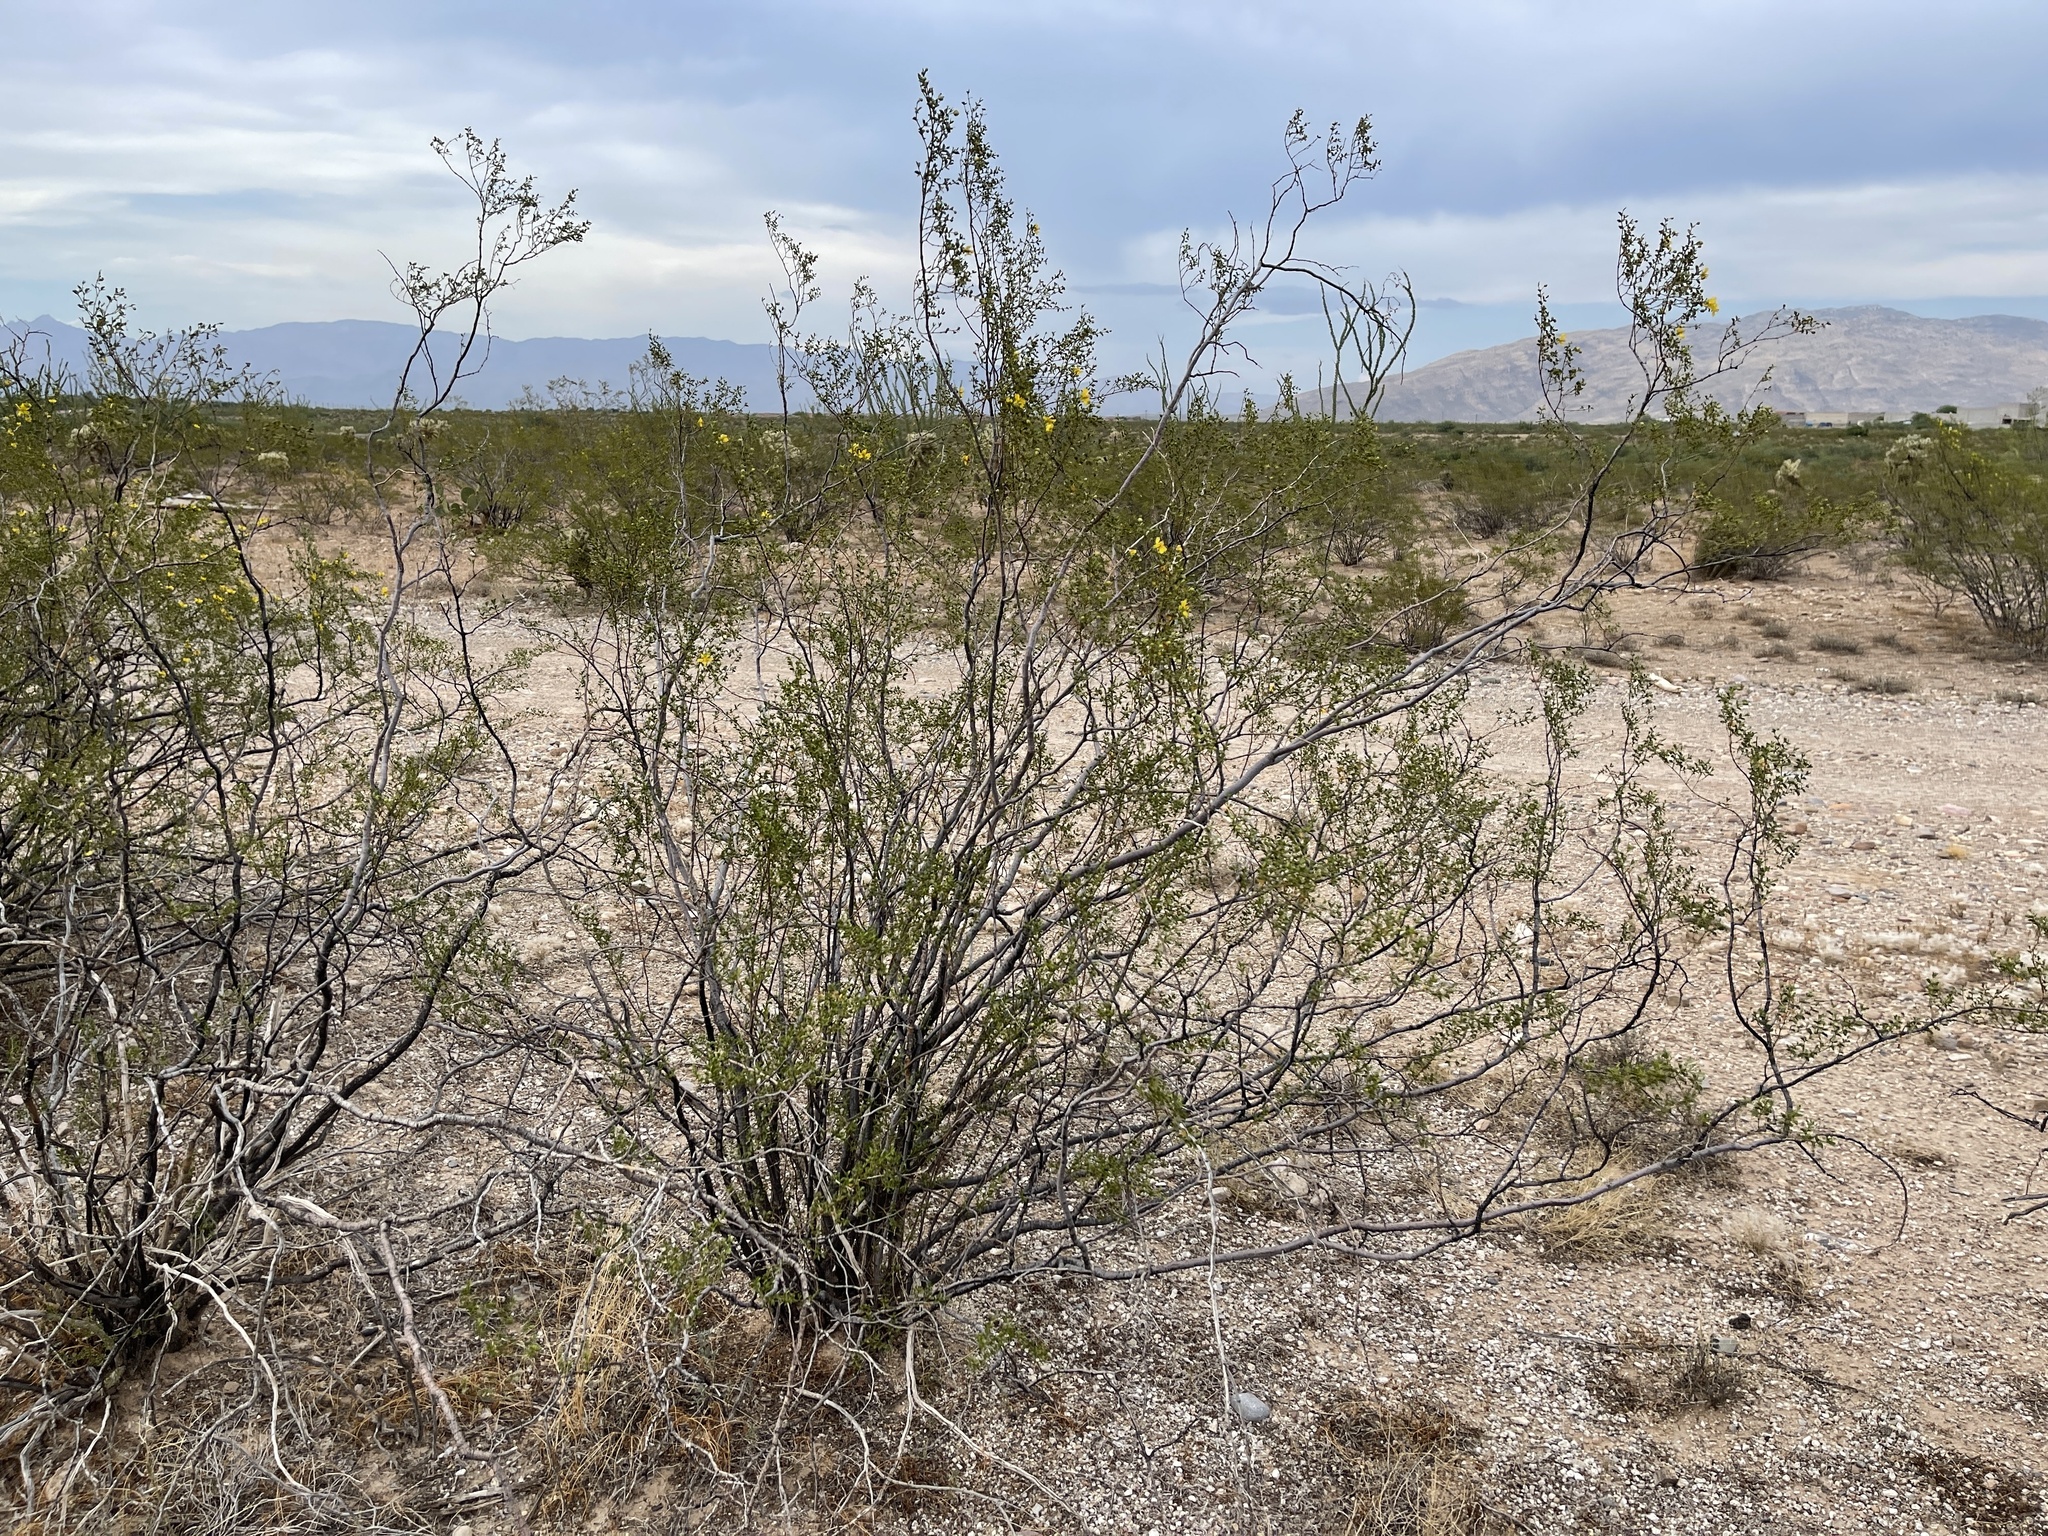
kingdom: Plantae
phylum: Tracheophyta
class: Magnoliopsida
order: Zygophyllales
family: Zygophyllaceae
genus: Larrea
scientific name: Larrea tridentata
